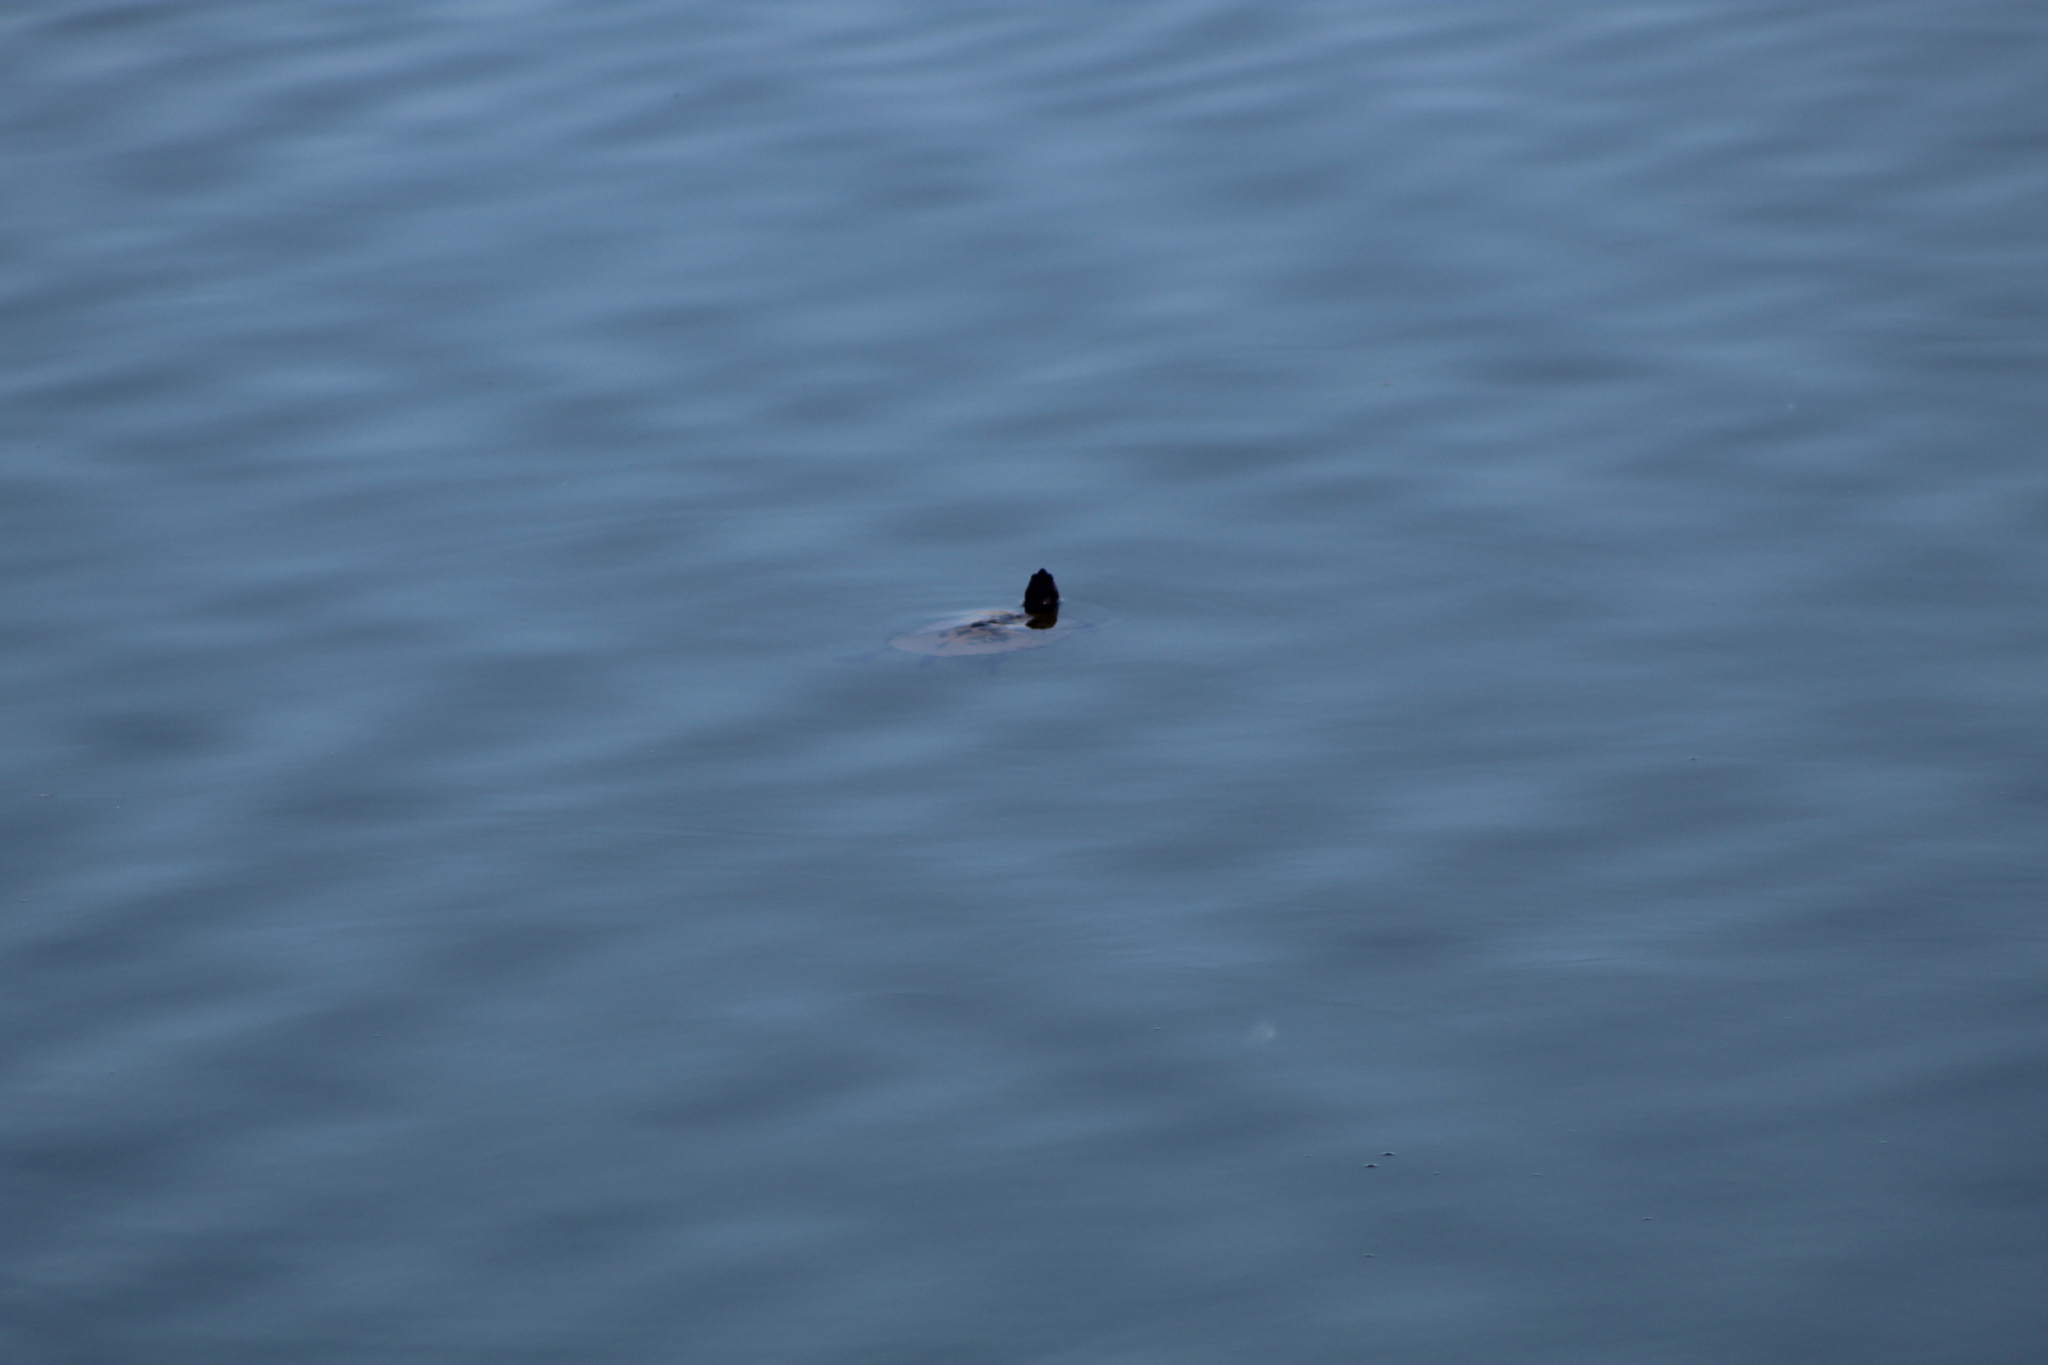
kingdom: Animalia
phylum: Chordata
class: Testudines
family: Emydidae
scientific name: Emydidae
